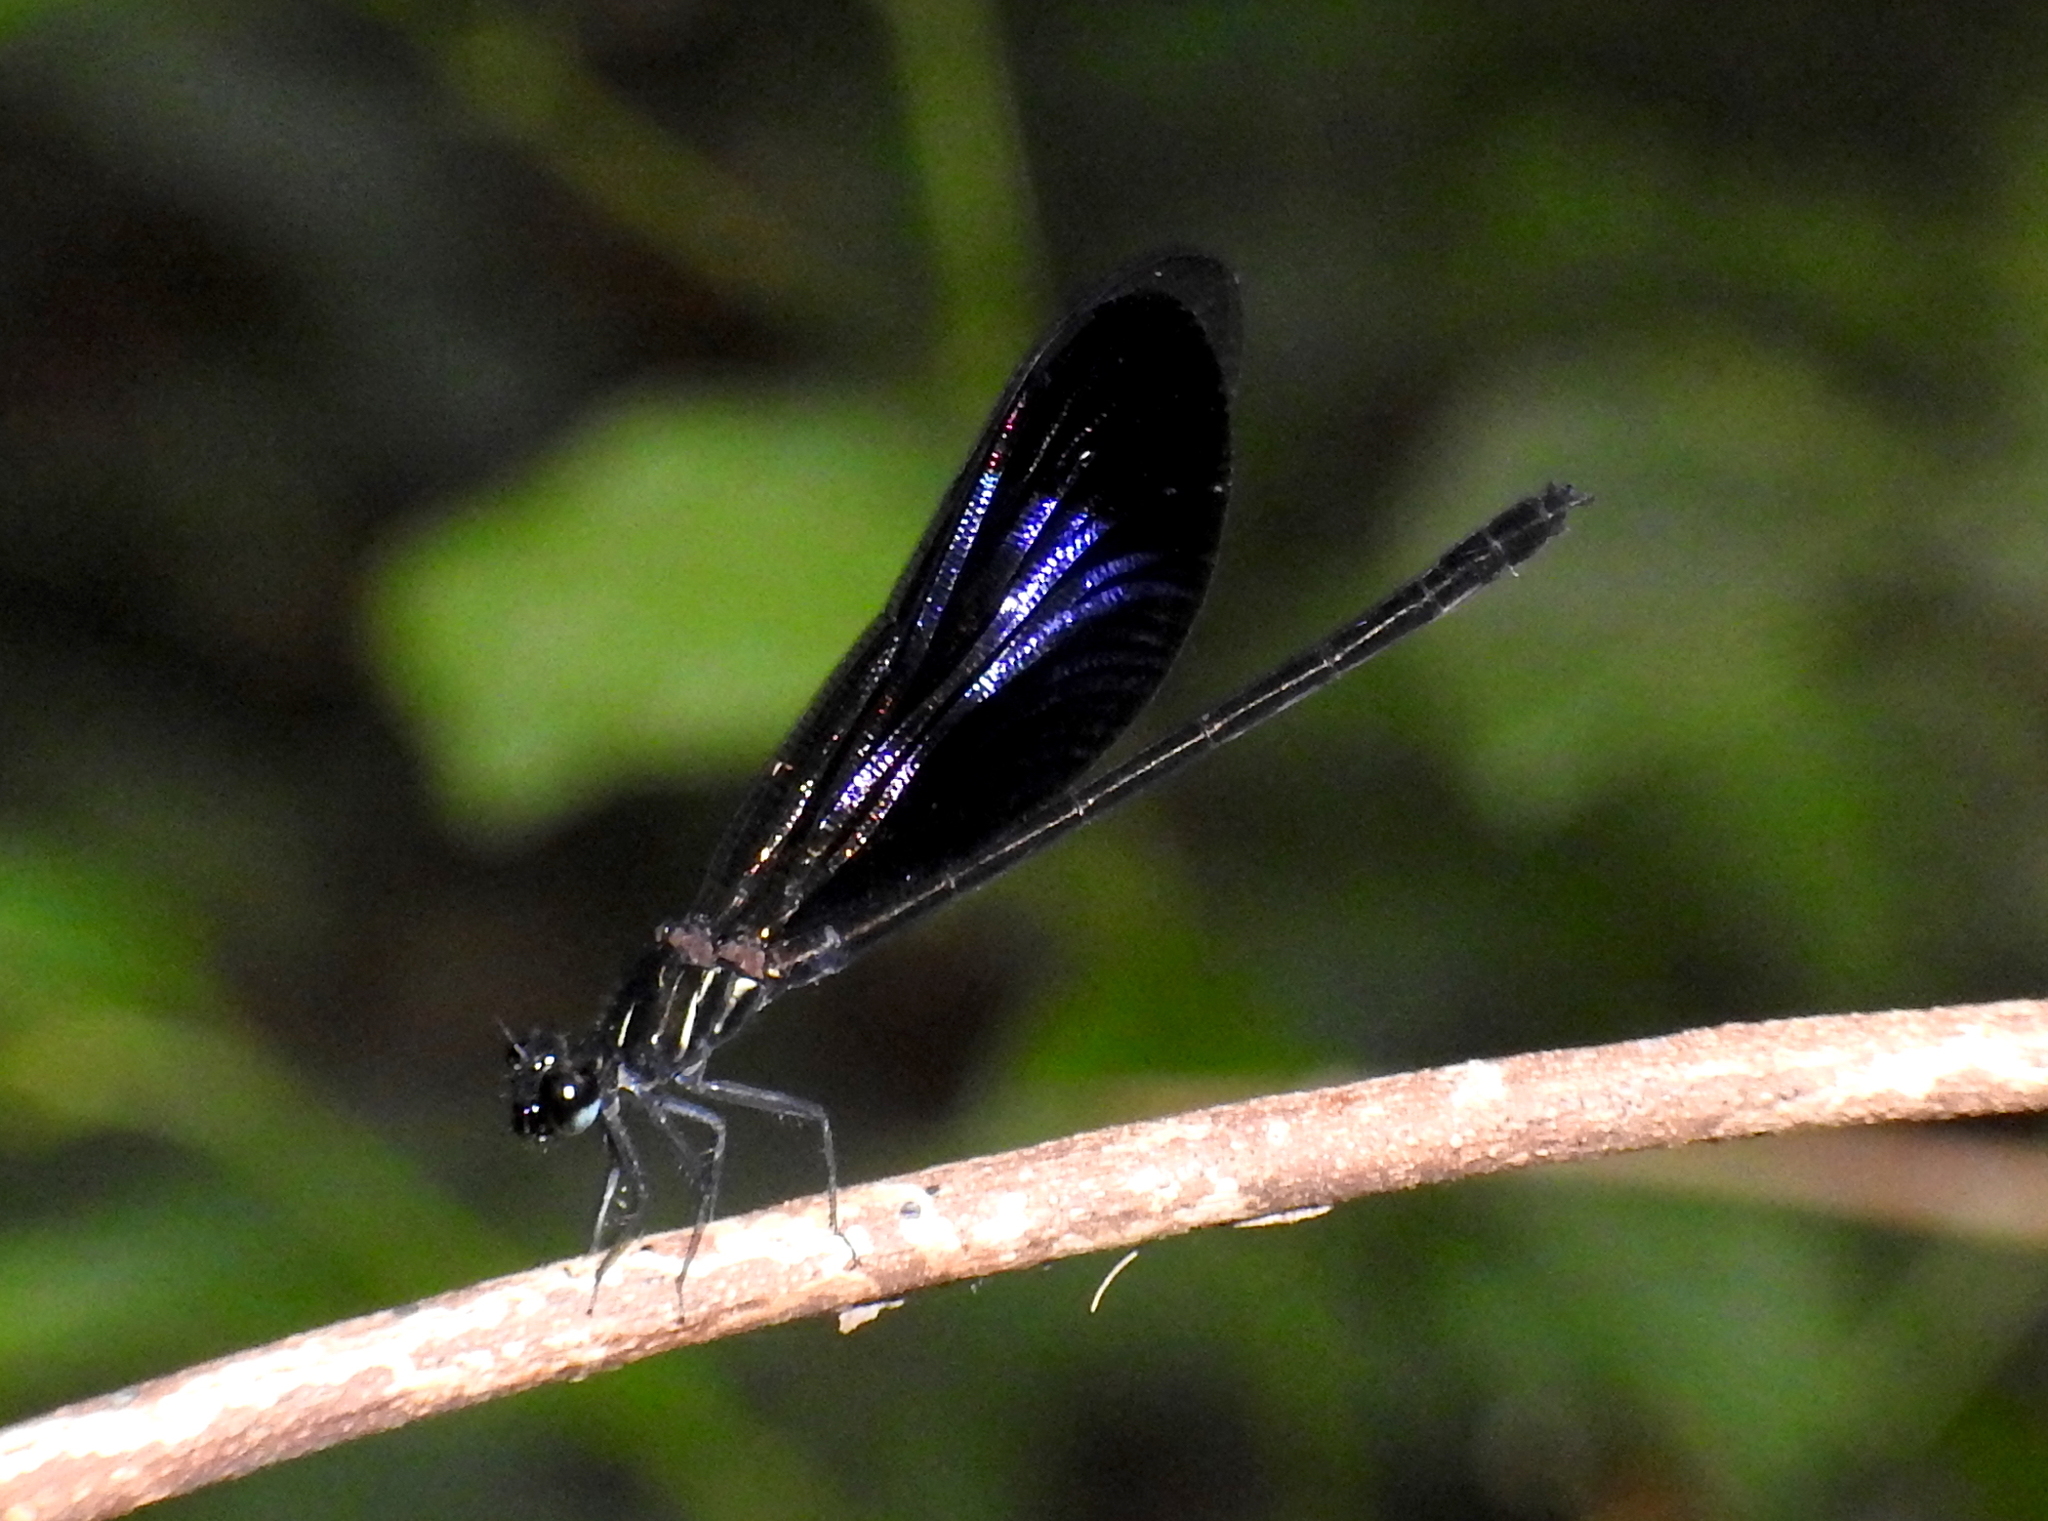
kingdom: Animalia
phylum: Arthropoda
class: Insecta
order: Odonata
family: Euphaeidae
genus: Euphaea
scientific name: Euphaea splendens
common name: Shining gossamerwing
